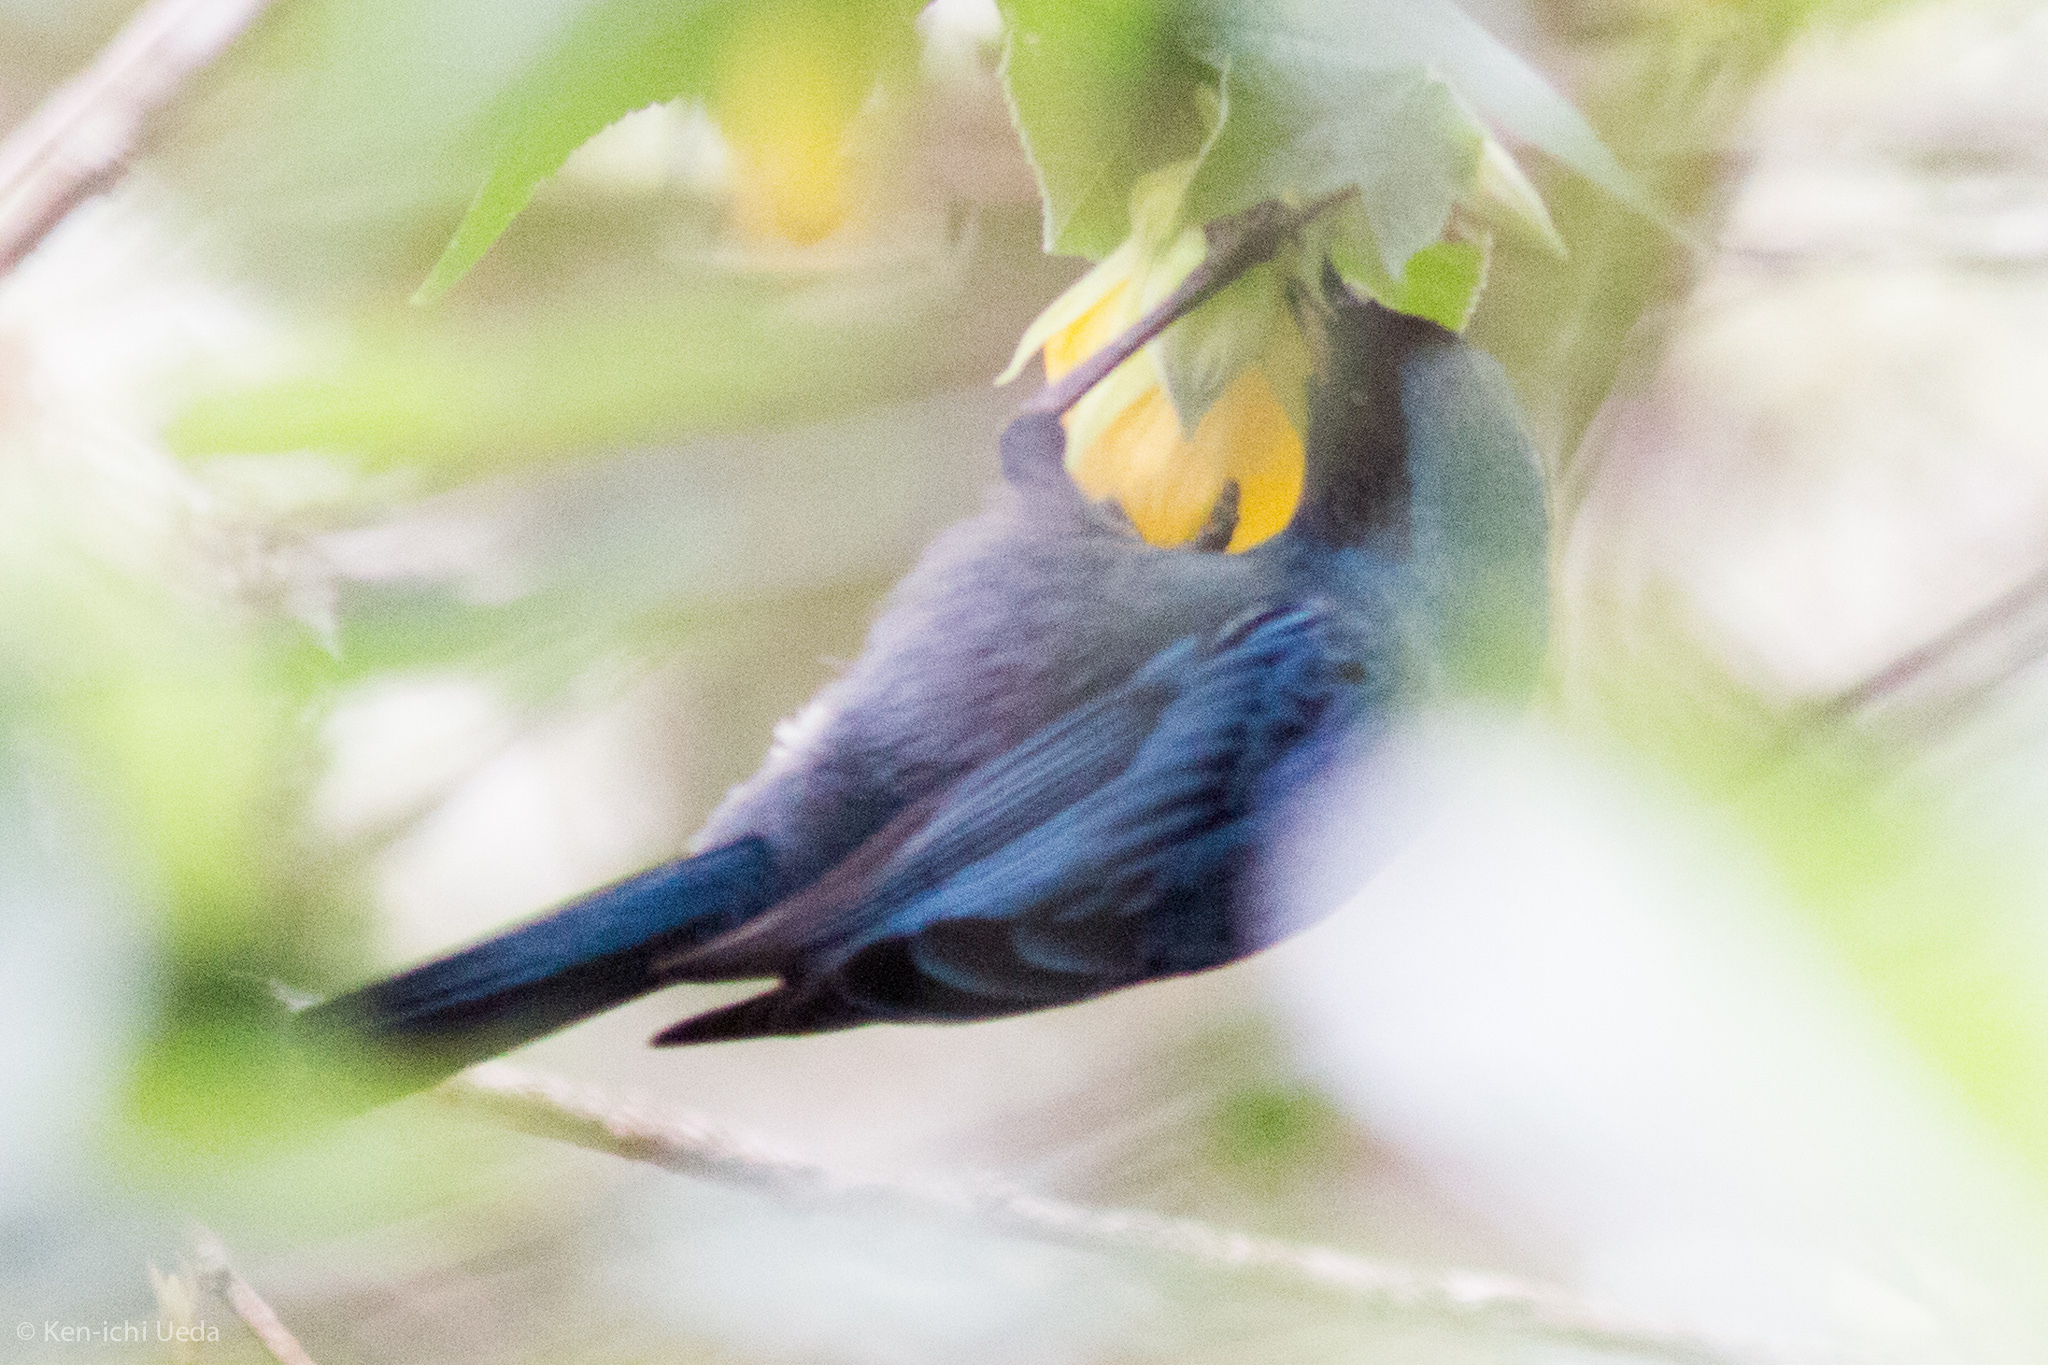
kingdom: Animalia
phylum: Chordata
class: Aves
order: Passeriformes
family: Thraupidae
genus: Diglossa
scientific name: Diglossa cyanea
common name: Masked flowerpiercer
